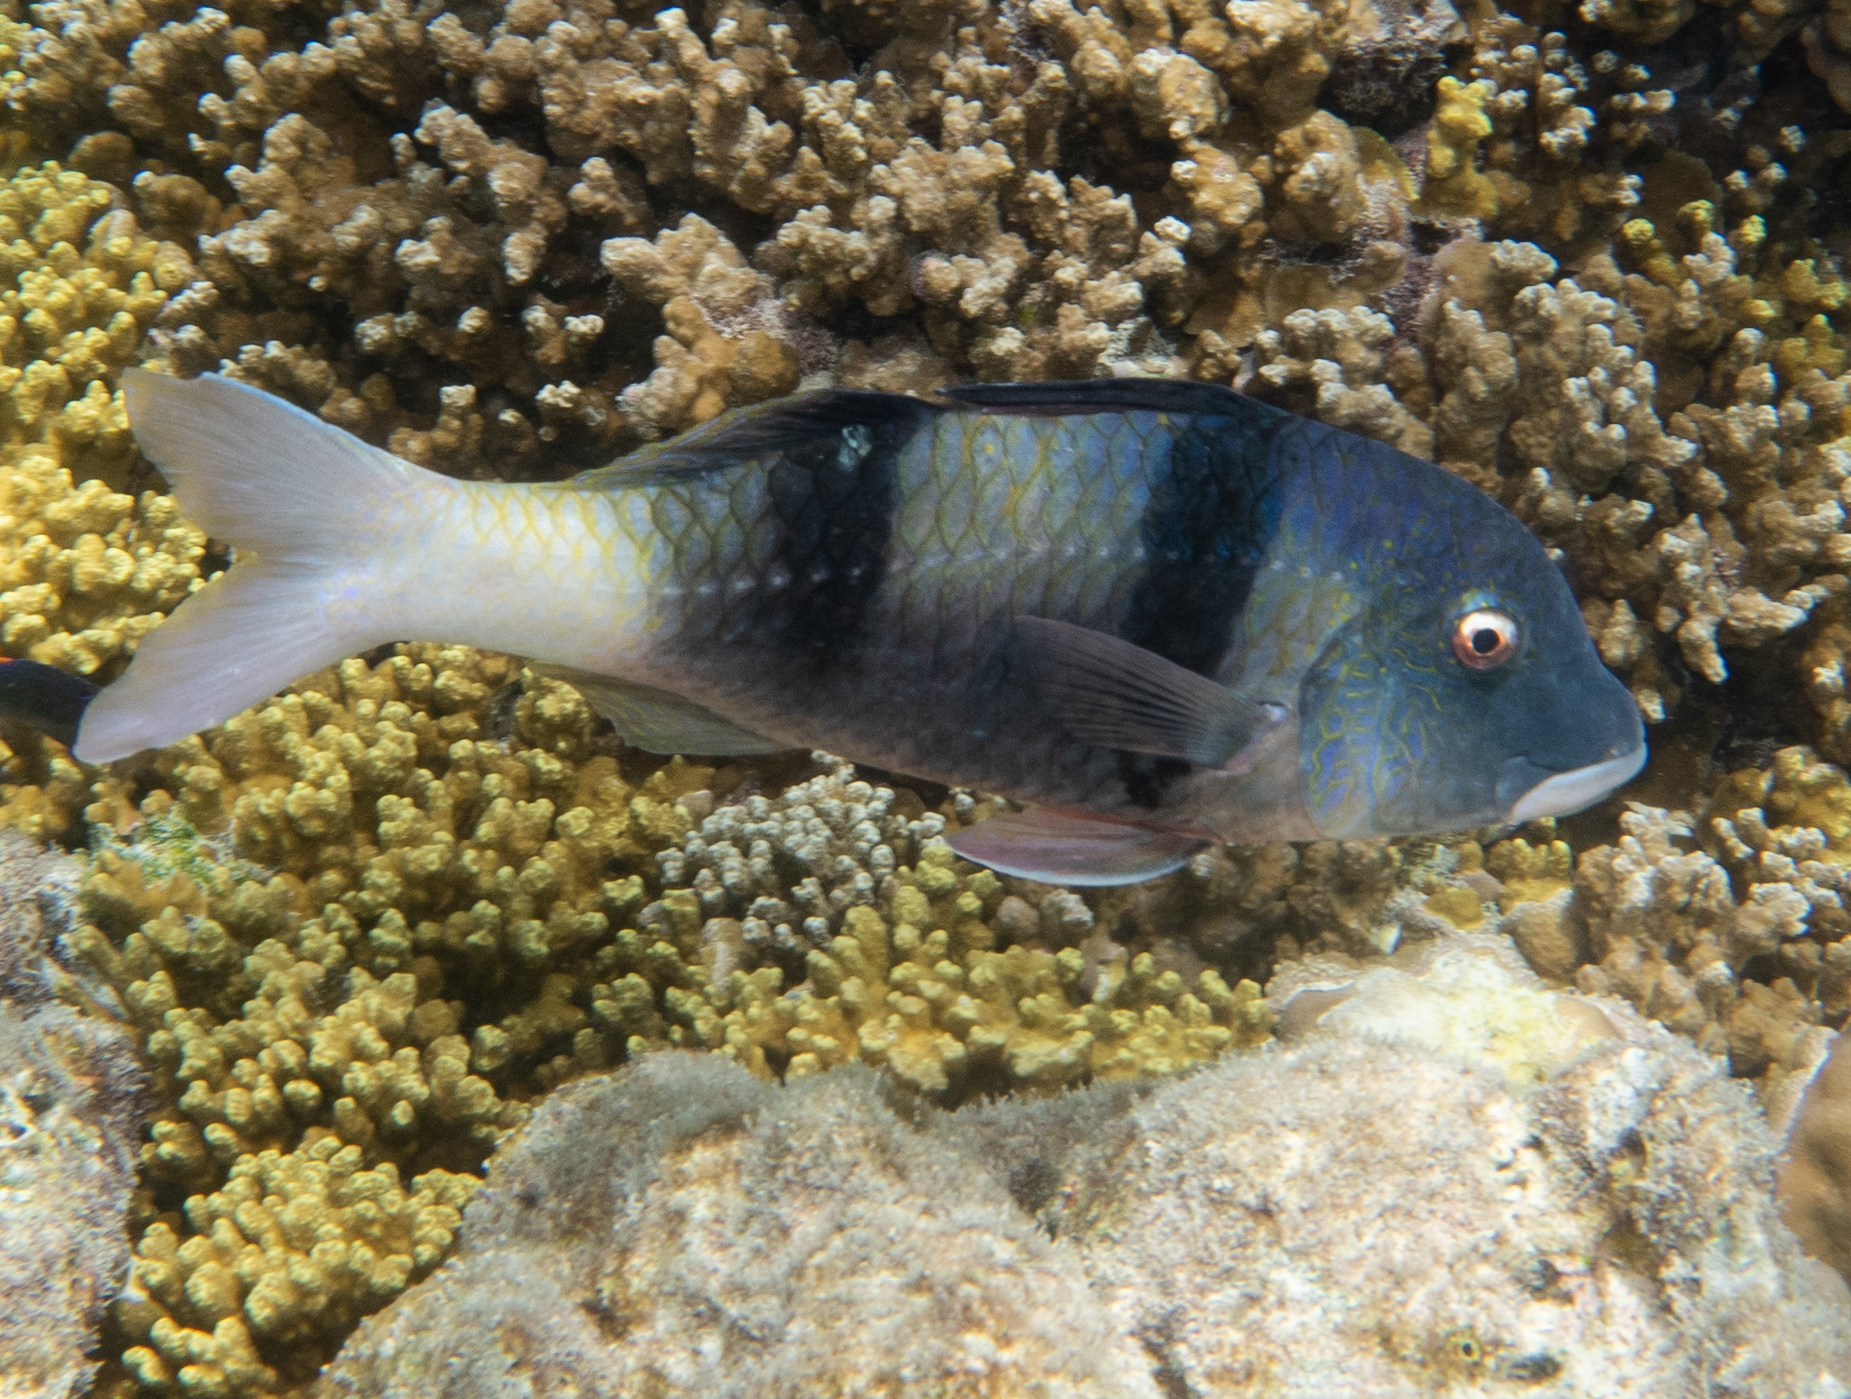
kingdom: Animalia
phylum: Chordata
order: Perciformes
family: Mullidae
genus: Parupeneus
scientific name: Parupeneus trifasciatus
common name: Doublebar goatfish
